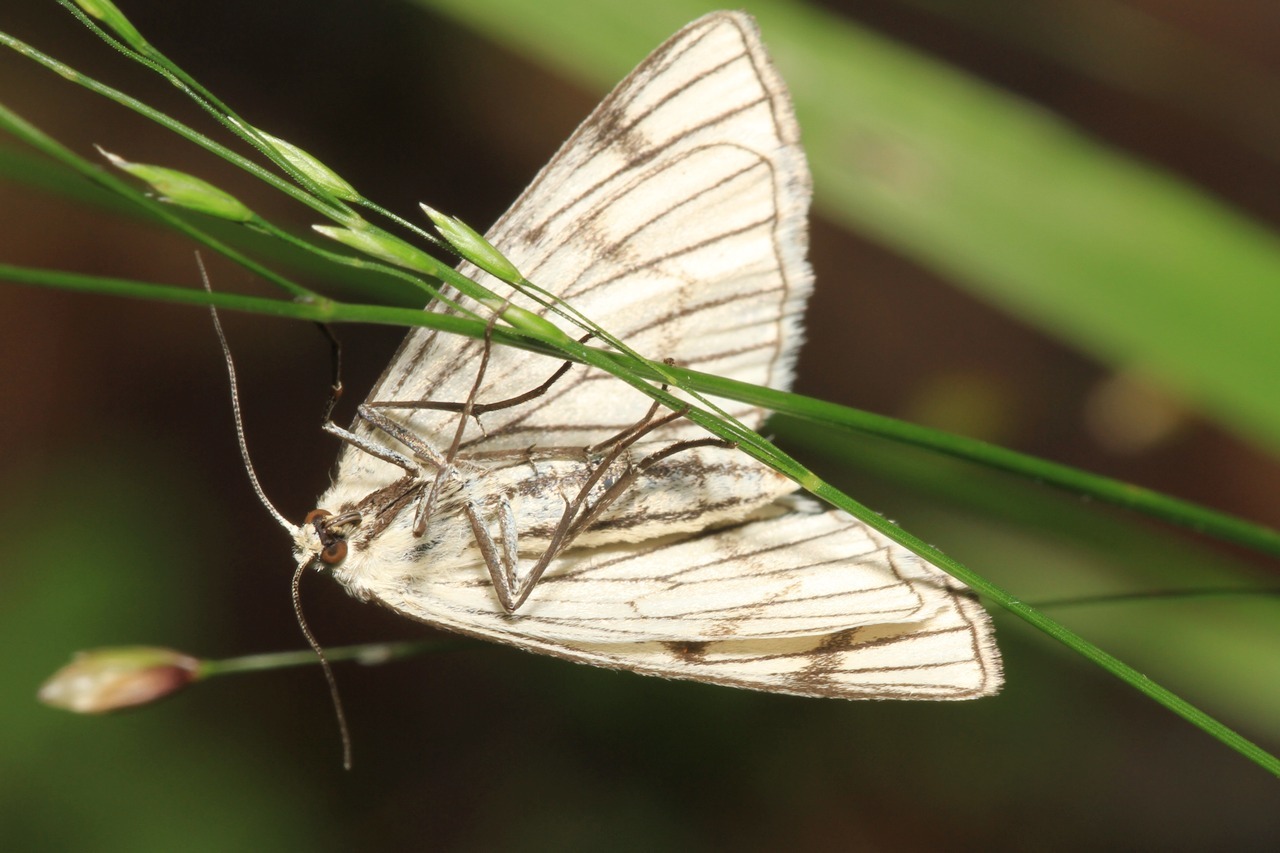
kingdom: Animalia
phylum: Arthropoda
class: Insecta
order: Lepidoptera
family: Geometridae
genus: Siona
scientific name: Siona lineata
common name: Black-veined moth
